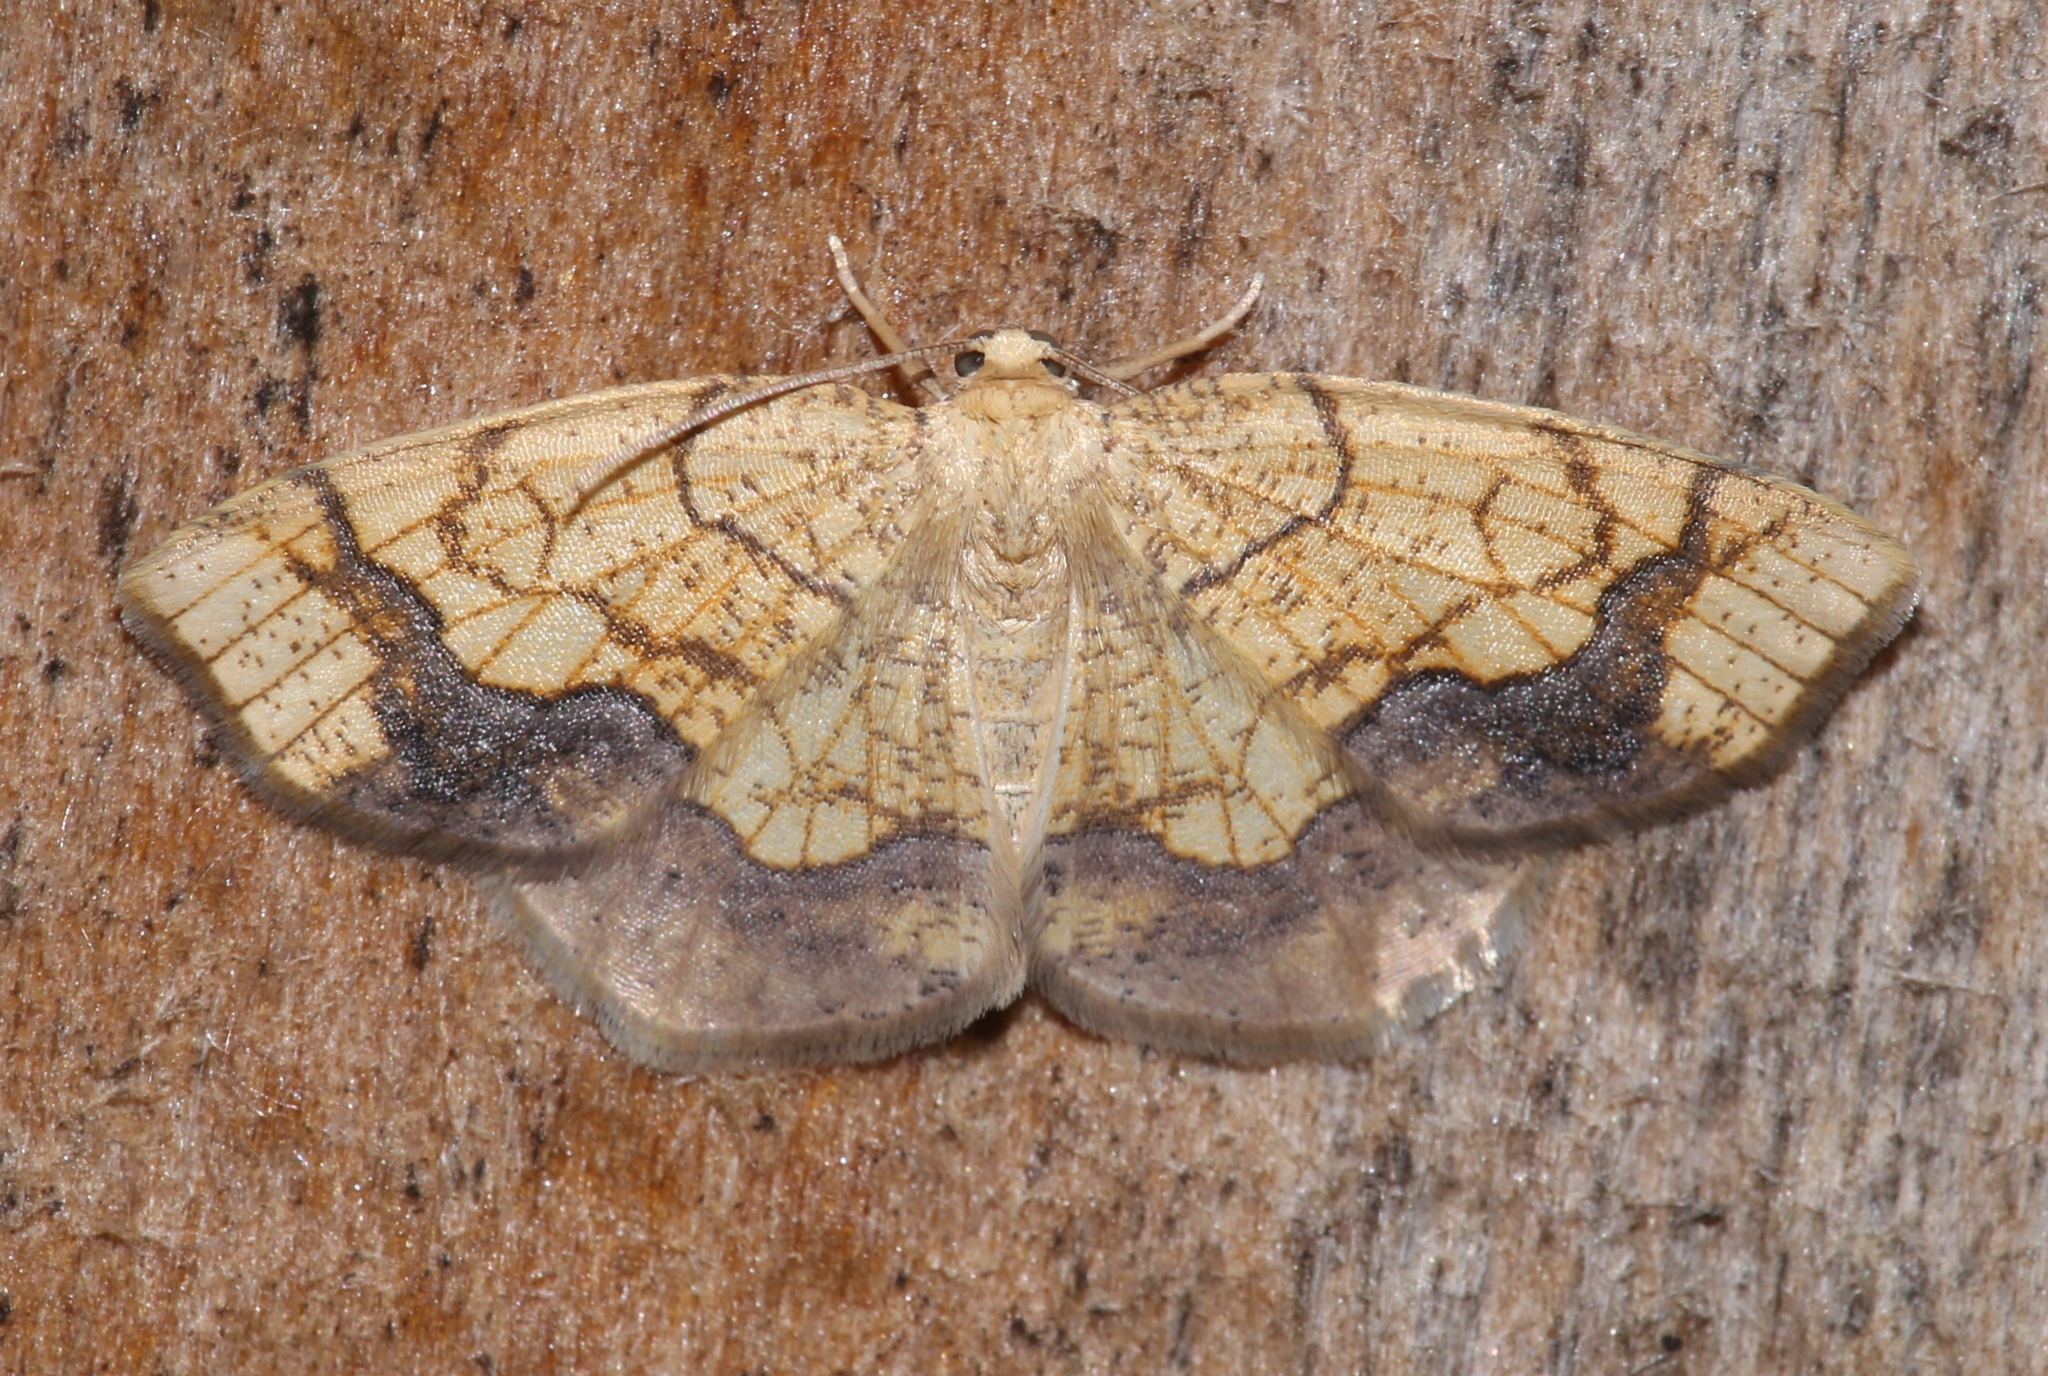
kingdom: Animalia
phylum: Arthropoda
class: Insecta
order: Lepidoptera
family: Geometridae
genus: Nematocampa
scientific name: Nematocampa resistaria
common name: Horned spanworm moth
